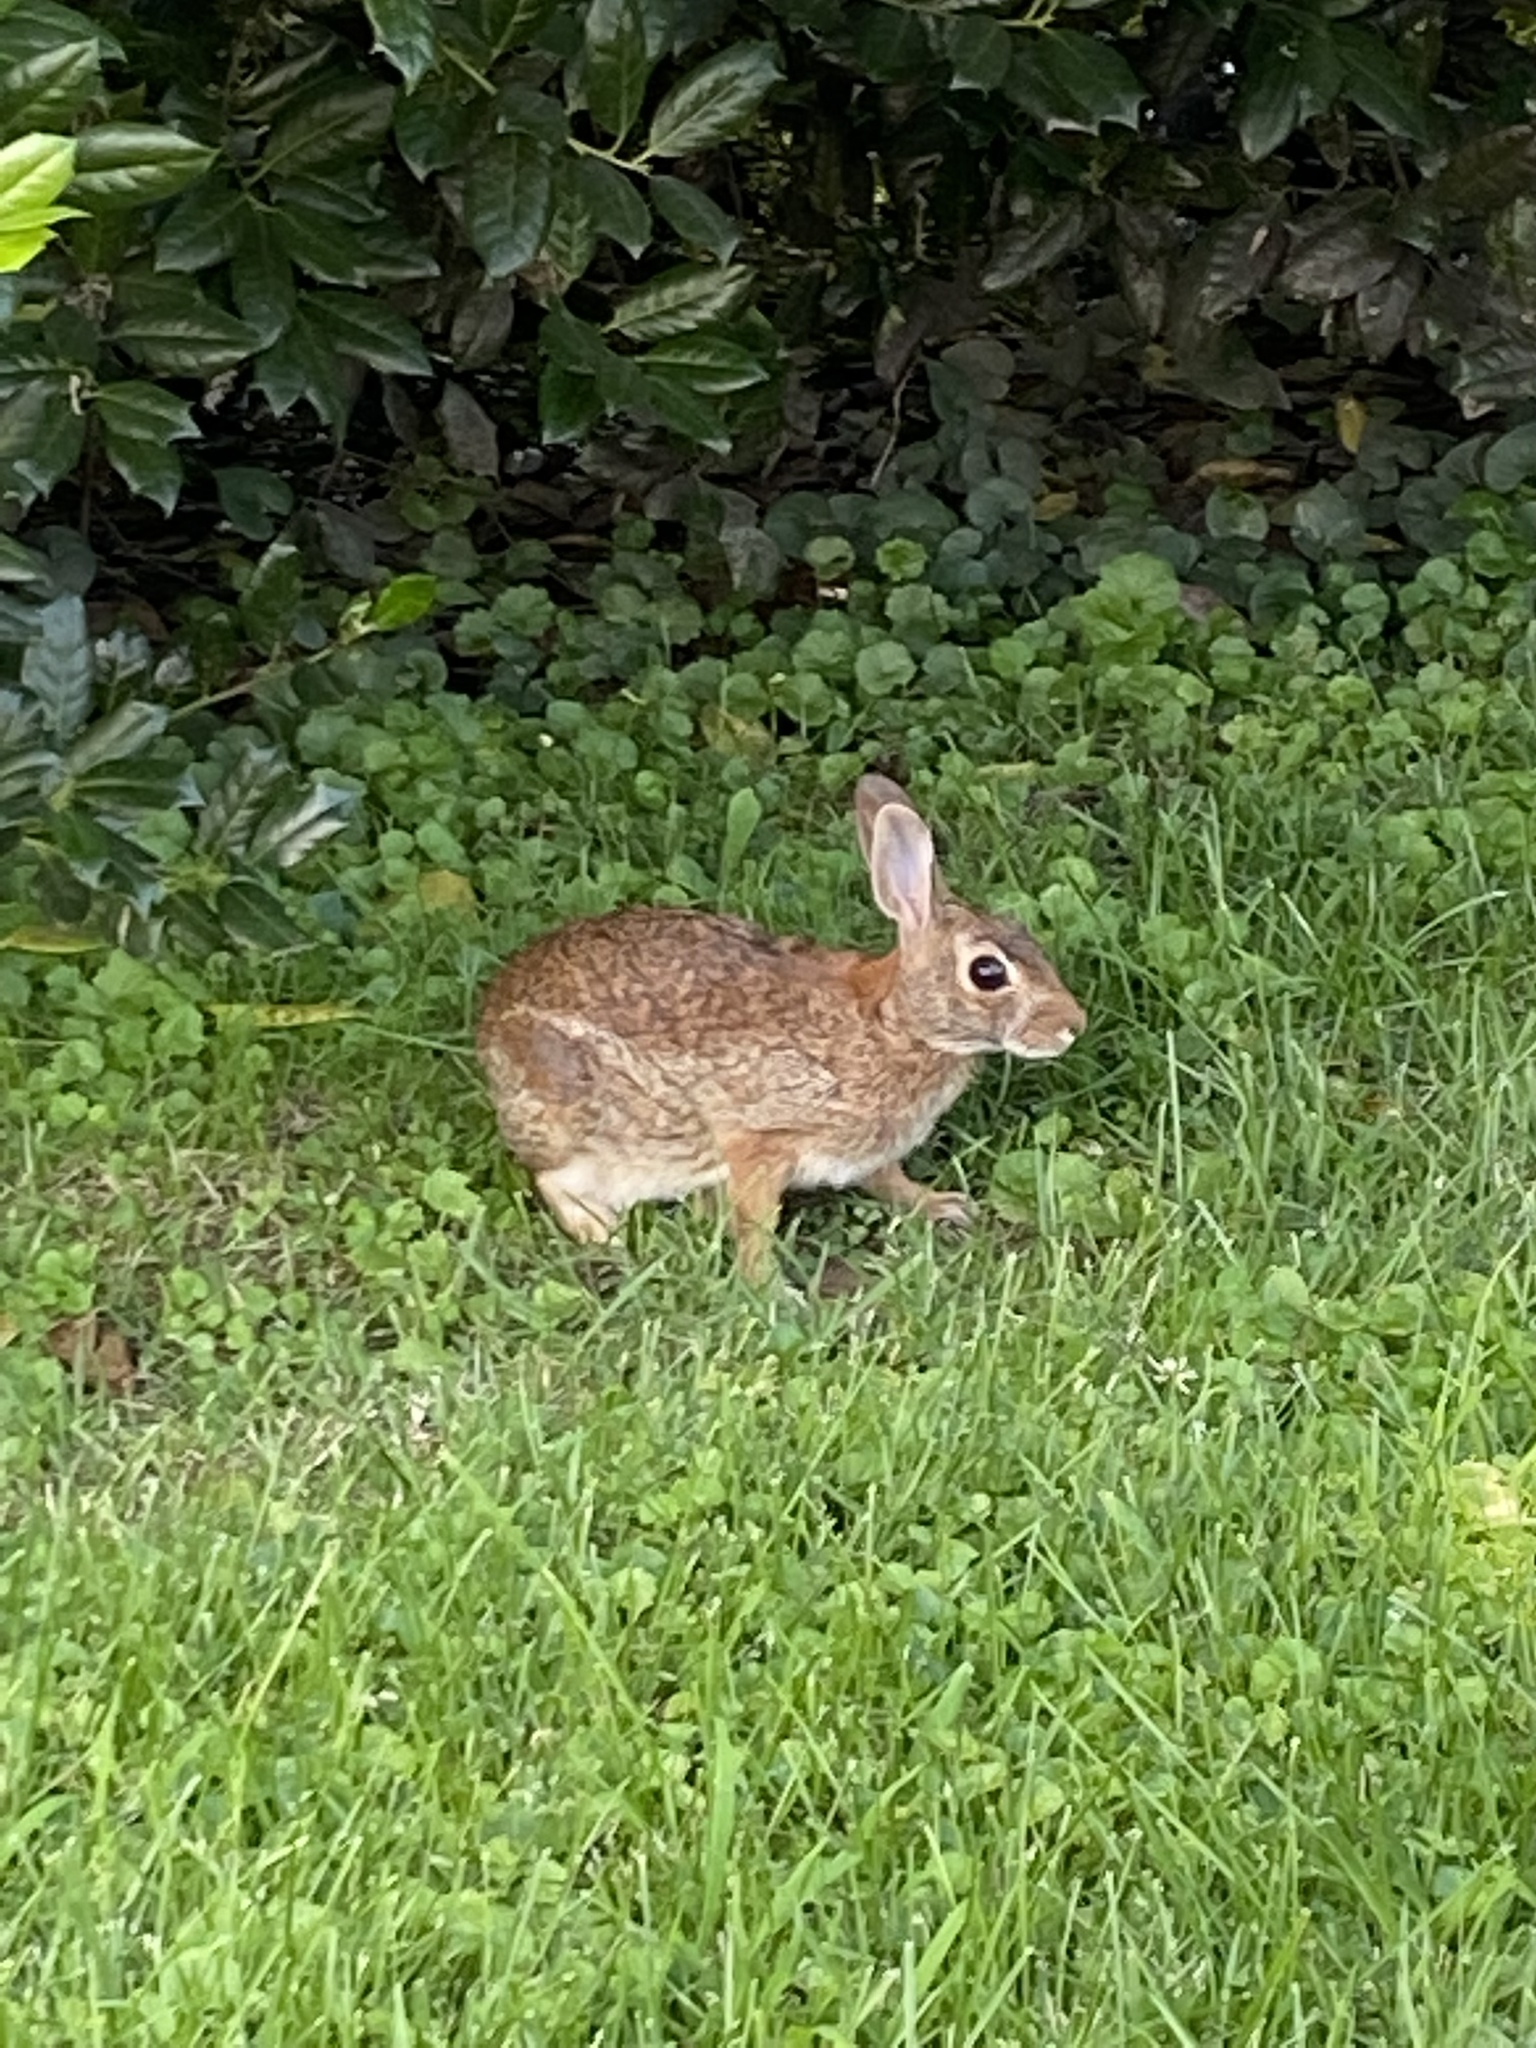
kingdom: Animalia
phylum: Chordata
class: Mammalia
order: Lagomorpha
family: Leporidae
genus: Sylvilagus
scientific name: Sylvilagus floridanus
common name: Eastern cottontail
